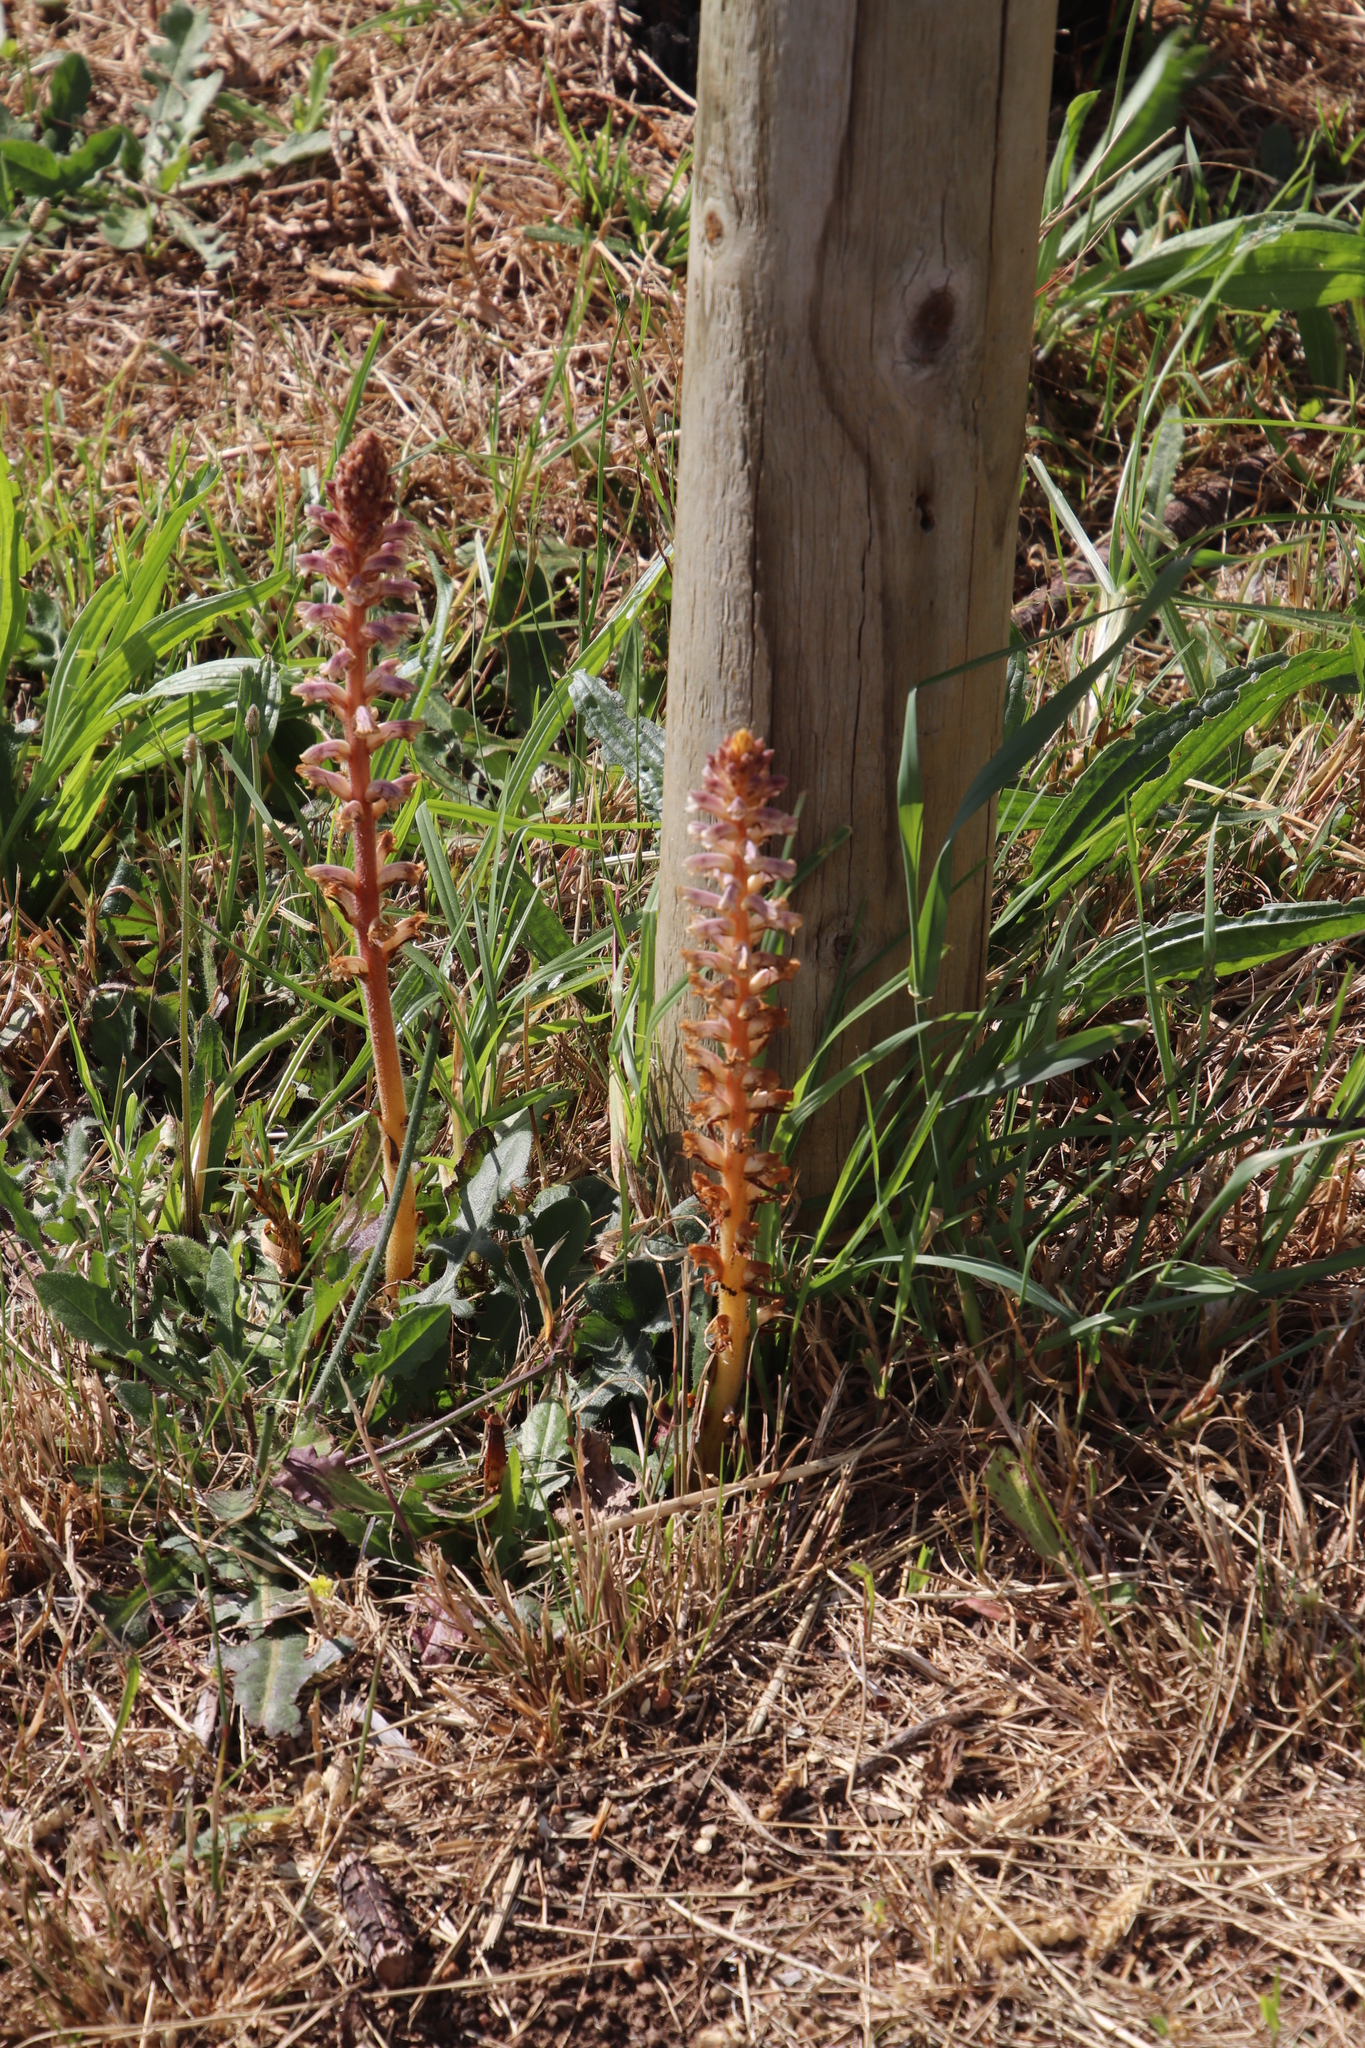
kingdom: Plantae
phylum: Tracheophyta
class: Magnoliopsida
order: Lamiales
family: Orobanchaceae
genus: Orobanche
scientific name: Orobanche minor
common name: Common broomrape
